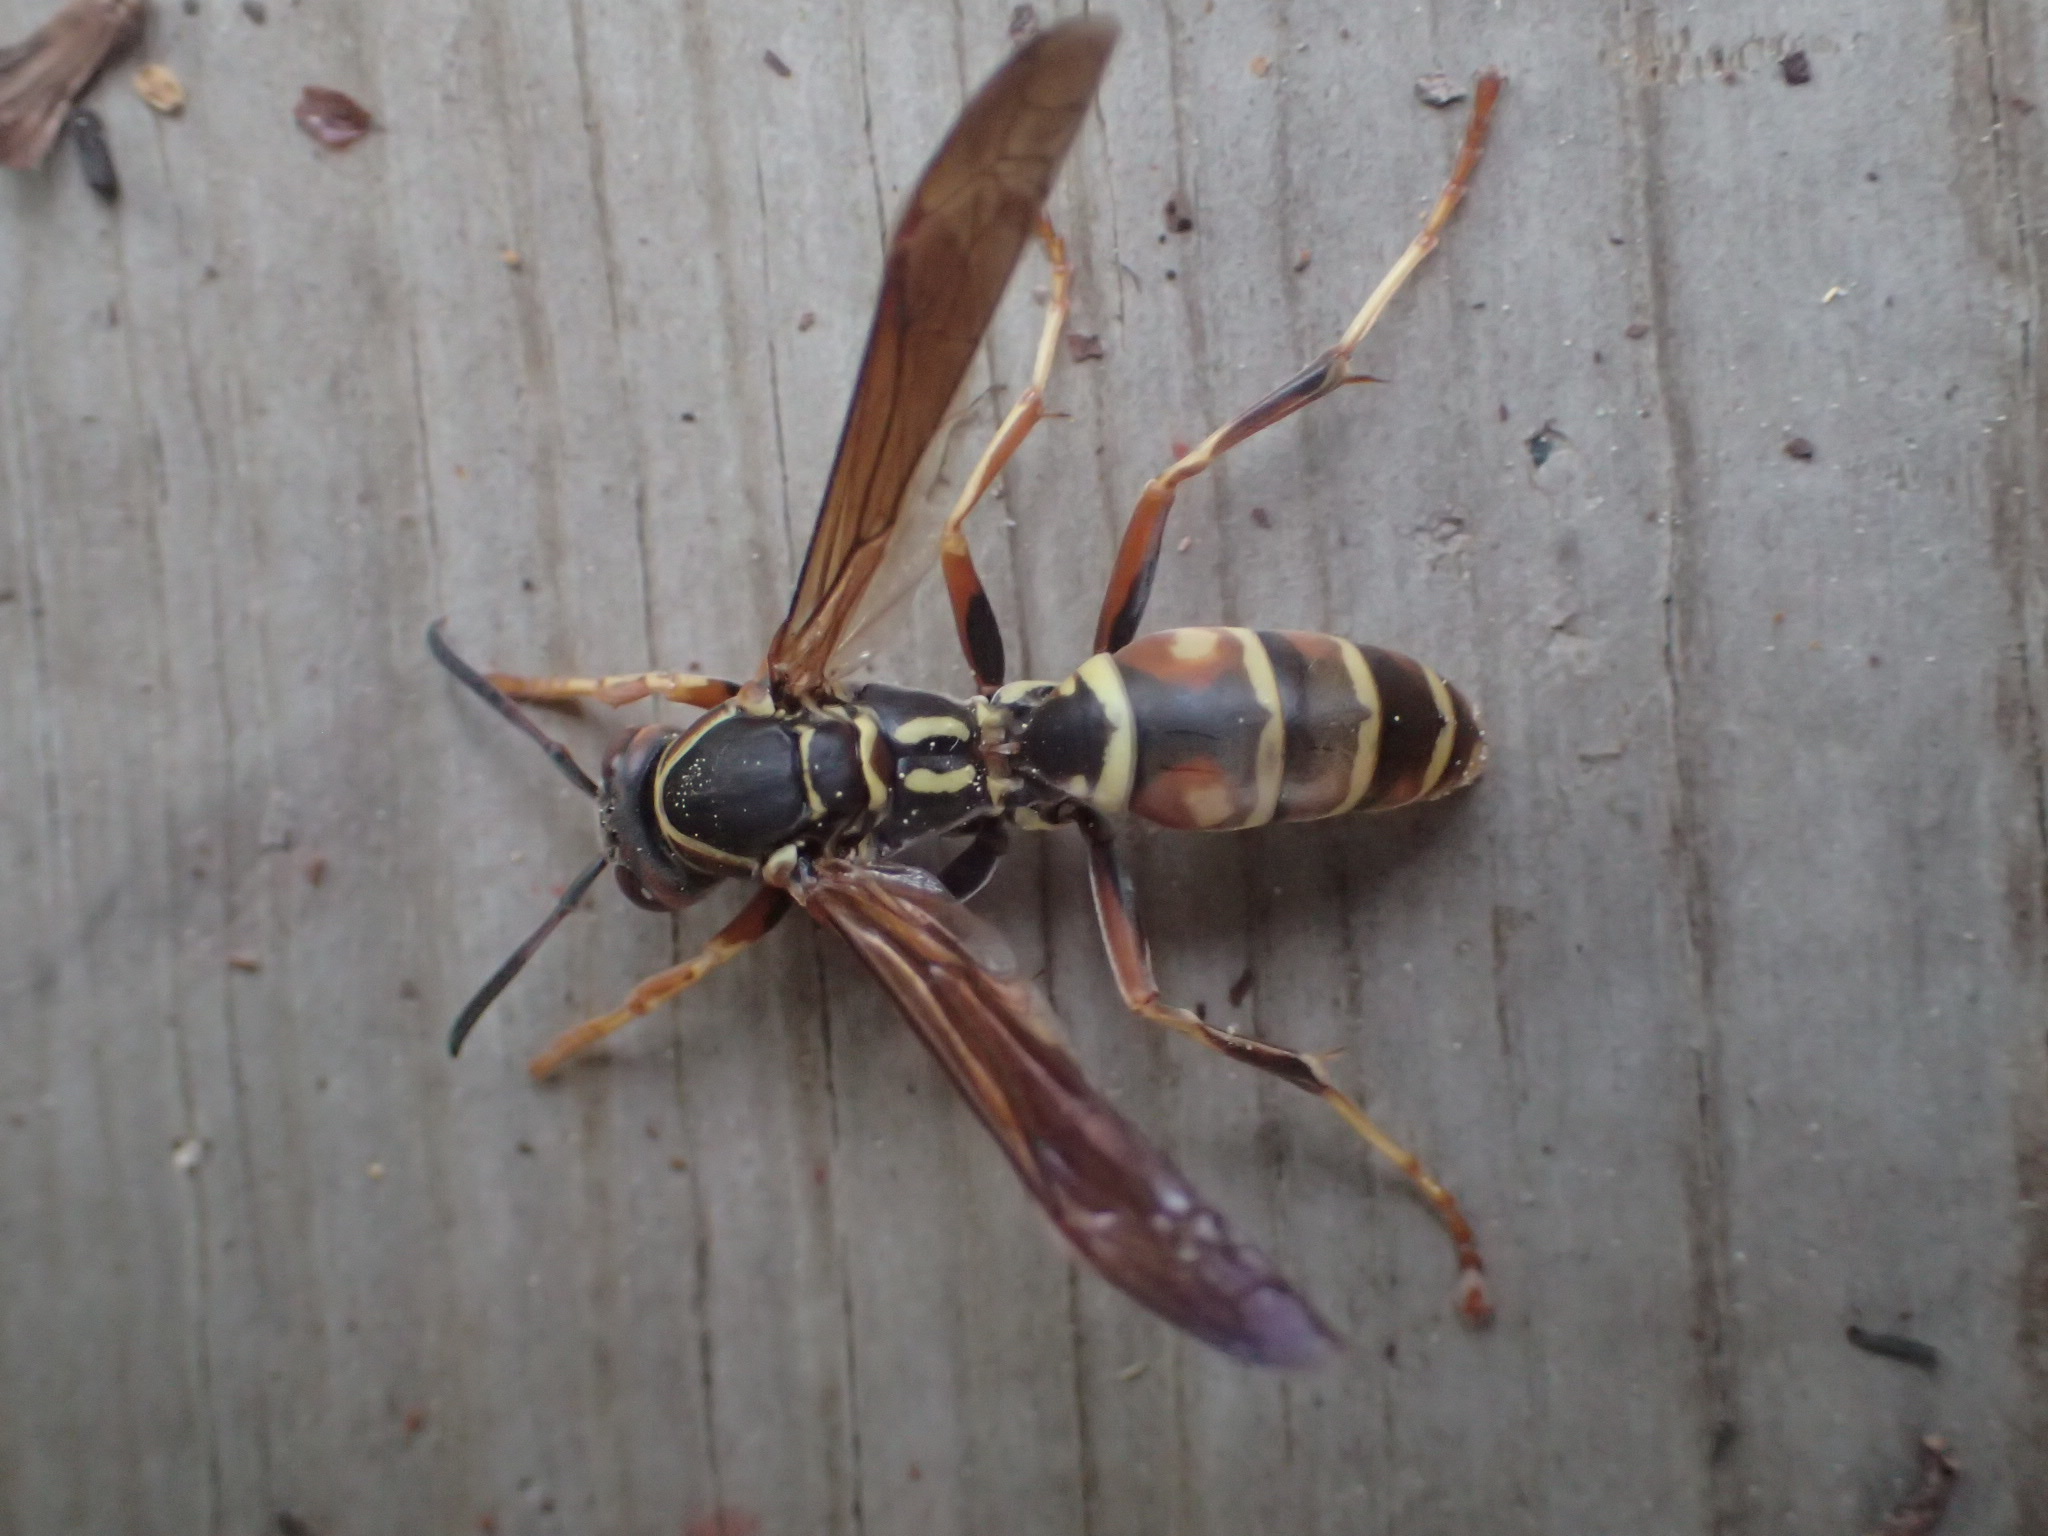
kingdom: Animalia
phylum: Arthropoda
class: Insecta
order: Hymenoptera
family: Eumenidae
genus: Polistes
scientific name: Polistes fuscatus
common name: Dark paper wasp
